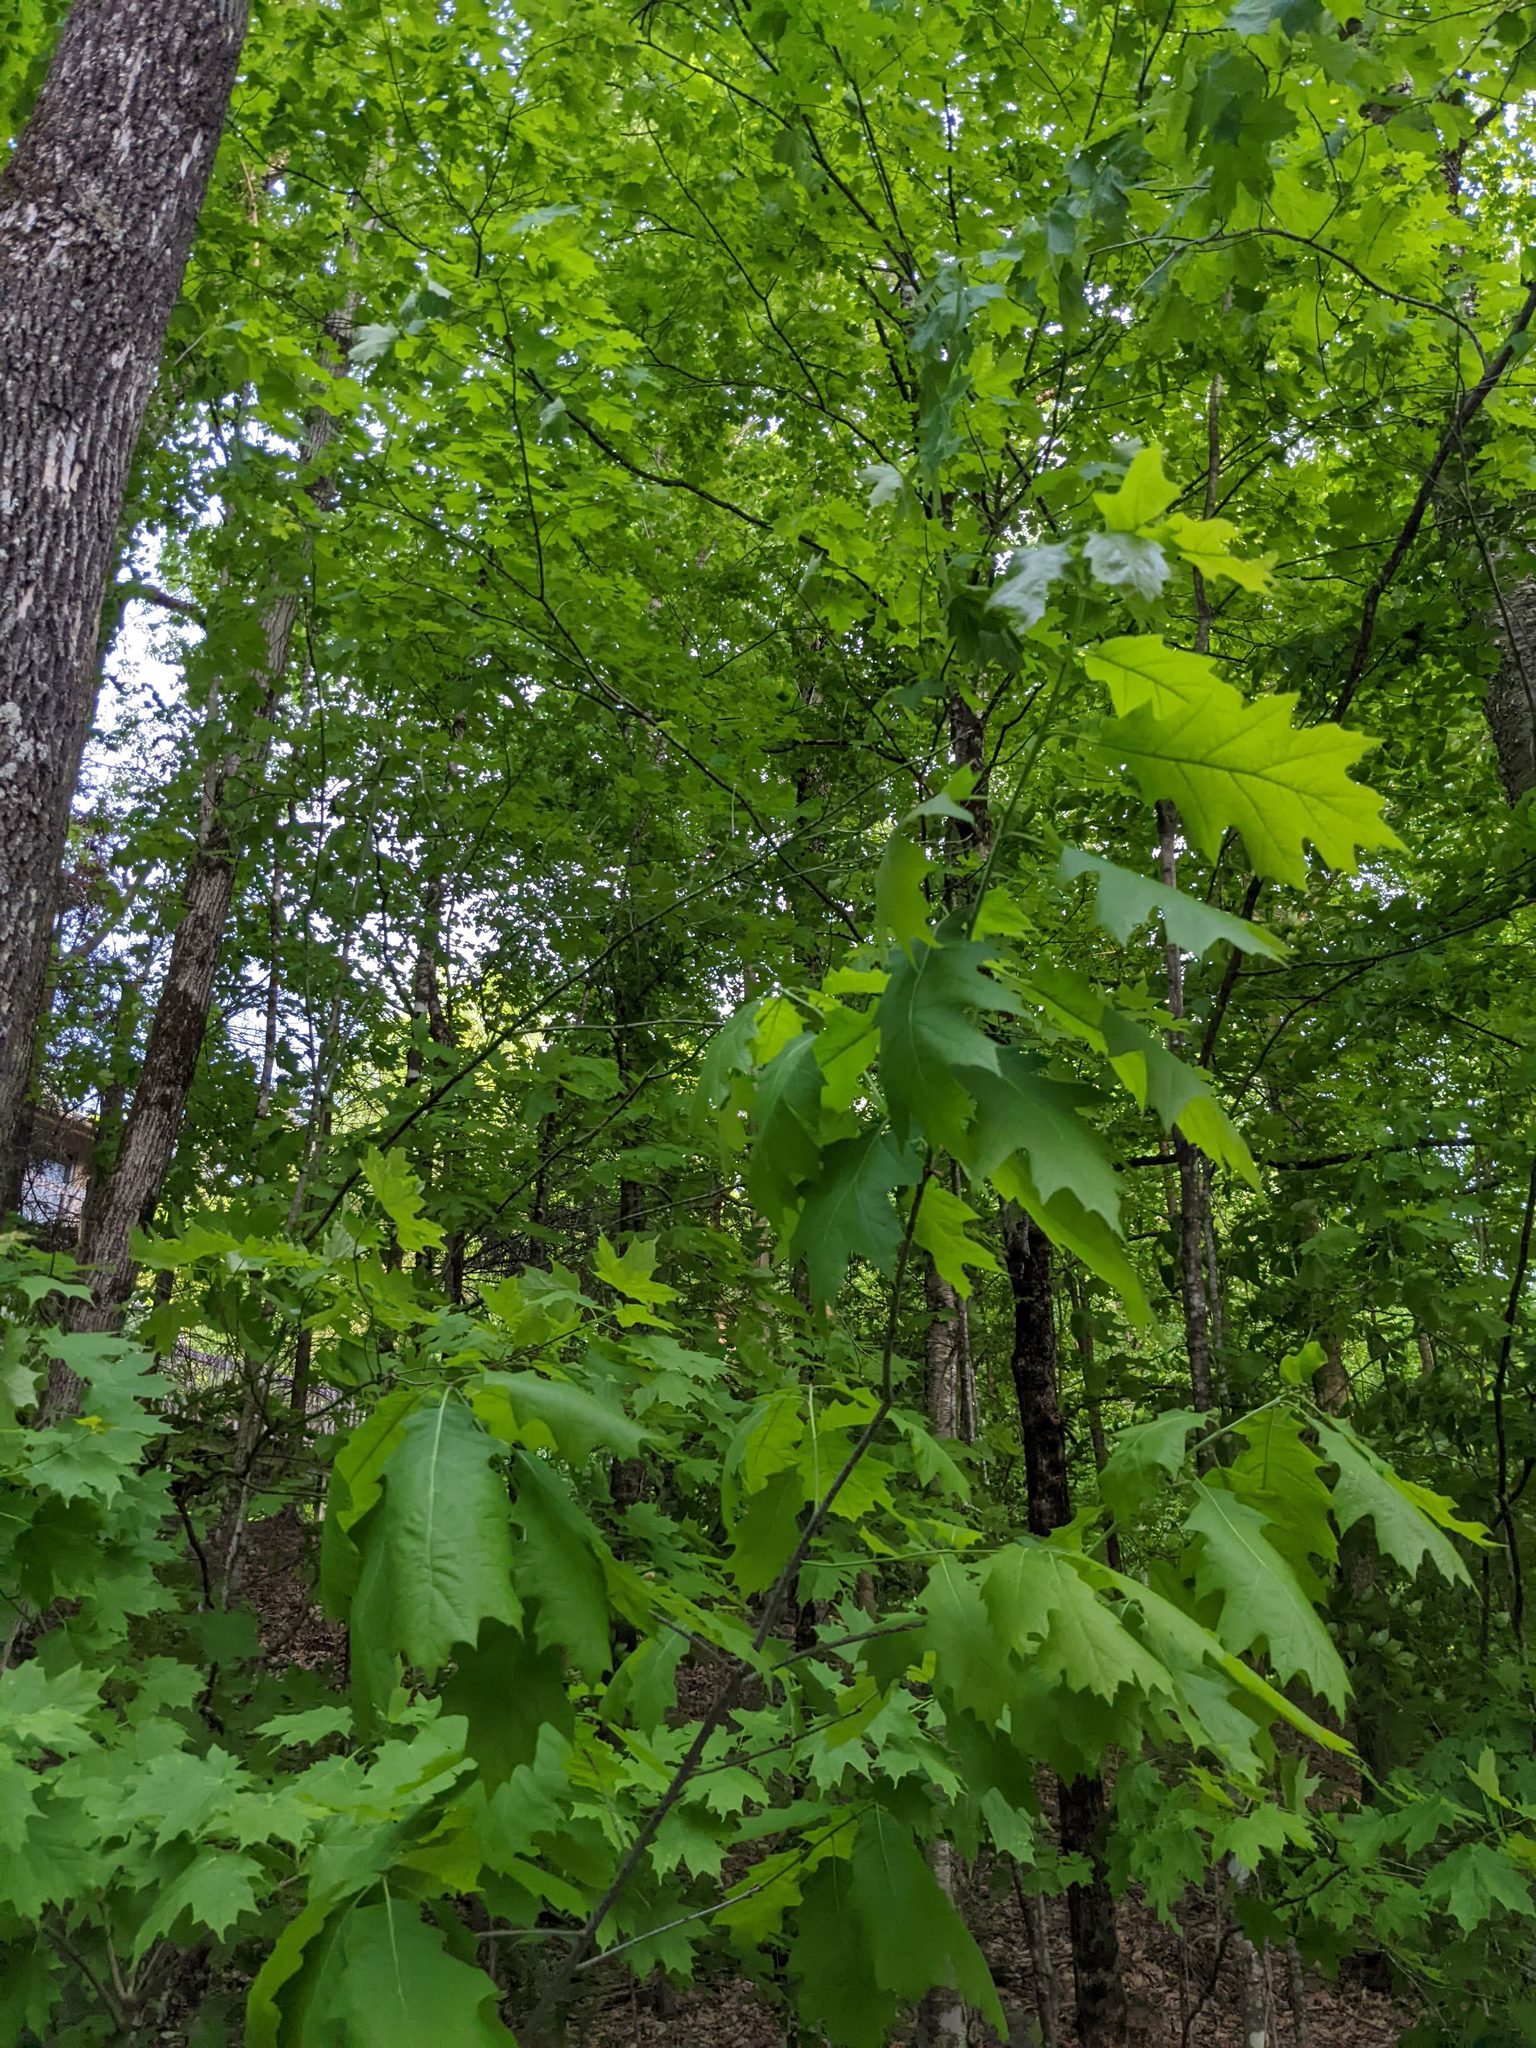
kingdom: Plantae
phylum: Tracheophyta
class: Magnoliopsida
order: Fagales
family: Fagaceae
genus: Quercus
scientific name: Quercus rubra
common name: Red oak
